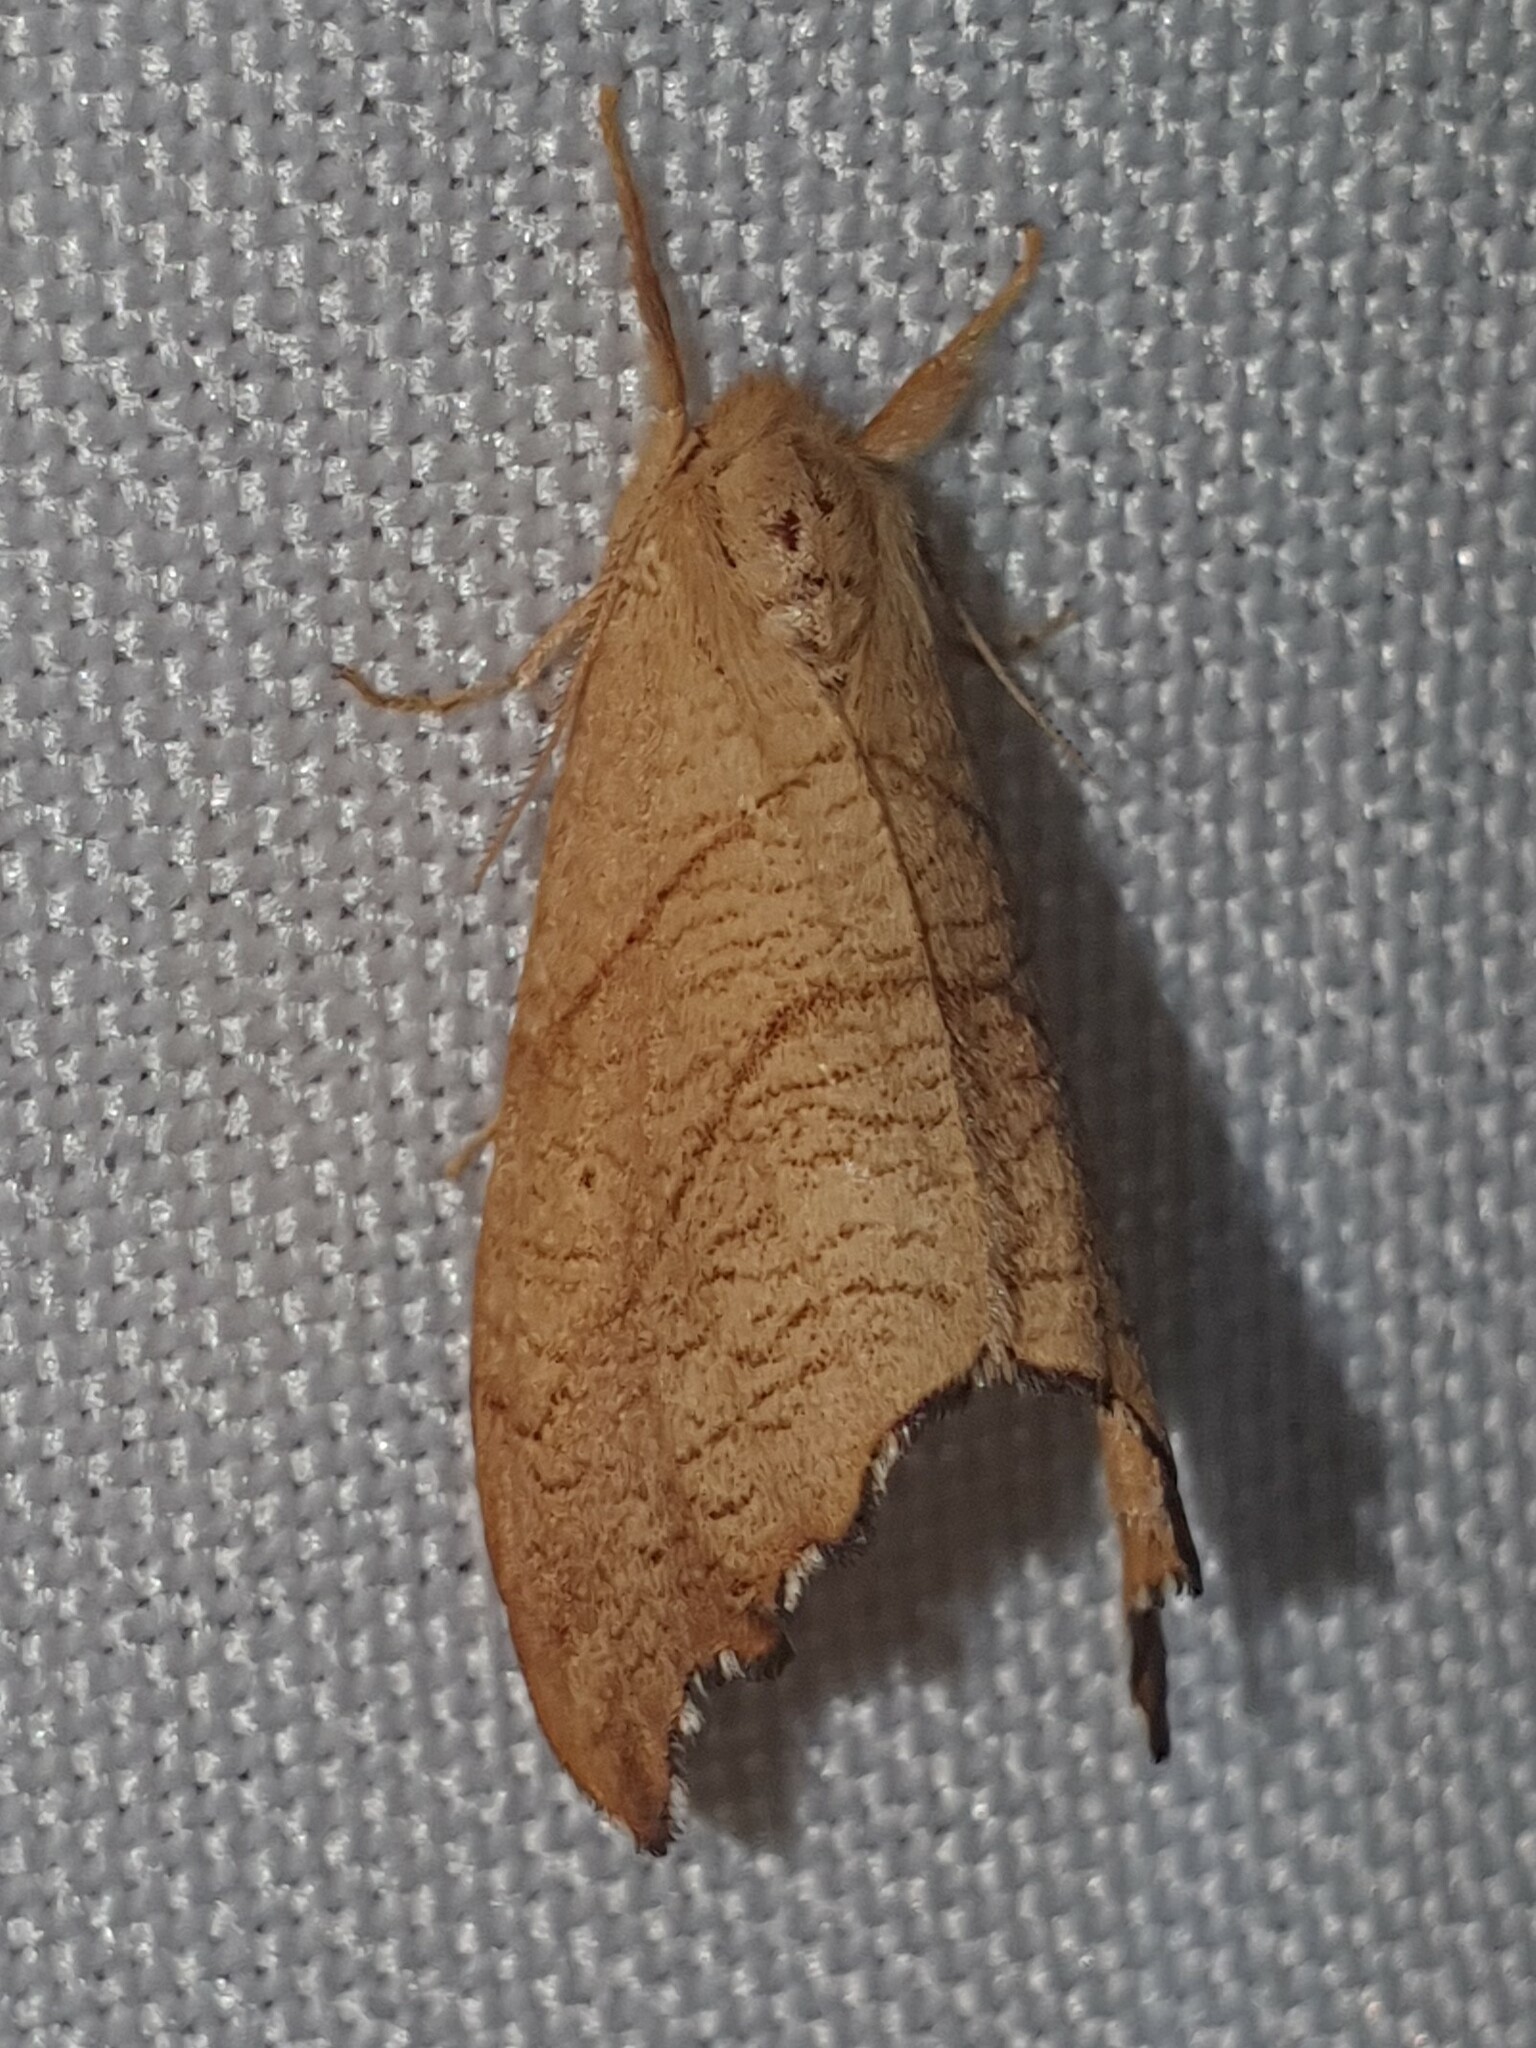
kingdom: Animalia
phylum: Arthropoda
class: Insecta
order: Lepidoptera
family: Drepanidae
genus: Falcaria
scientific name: Falcaria lacertinaria
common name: Scalloped hook-tip
